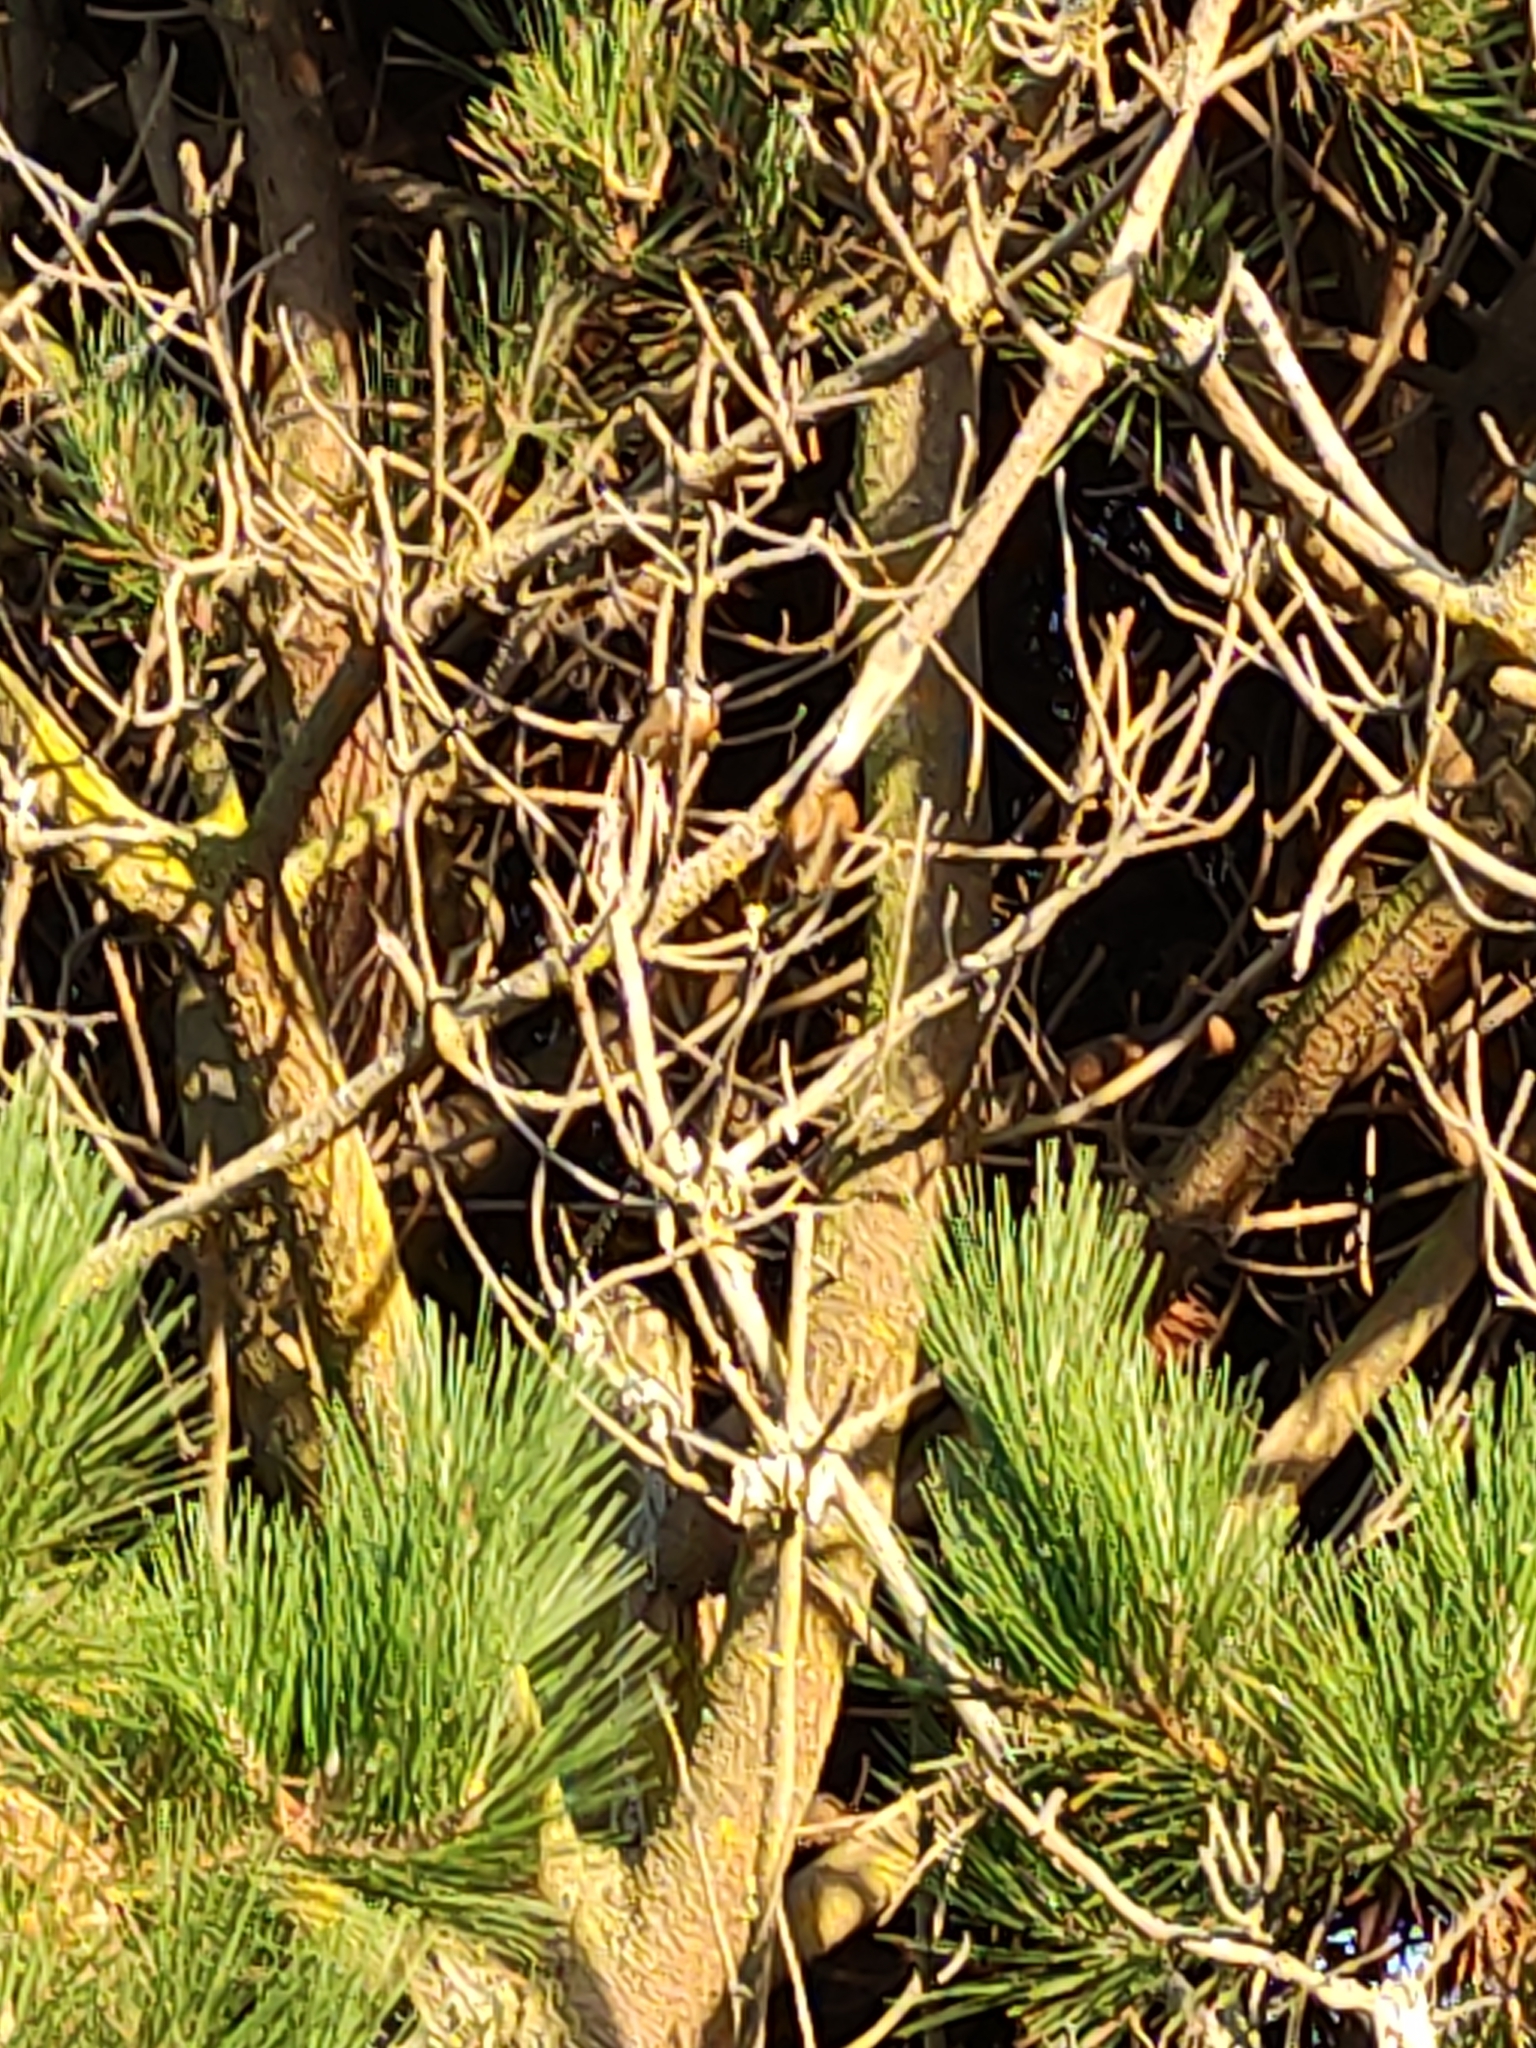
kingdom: Animalia
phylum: Chordata
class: Aves
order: Passeriformes
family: Rhipiduridae
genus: Rhipidura
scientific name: Rhipidura fuliginosa
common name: New zealand fantail
